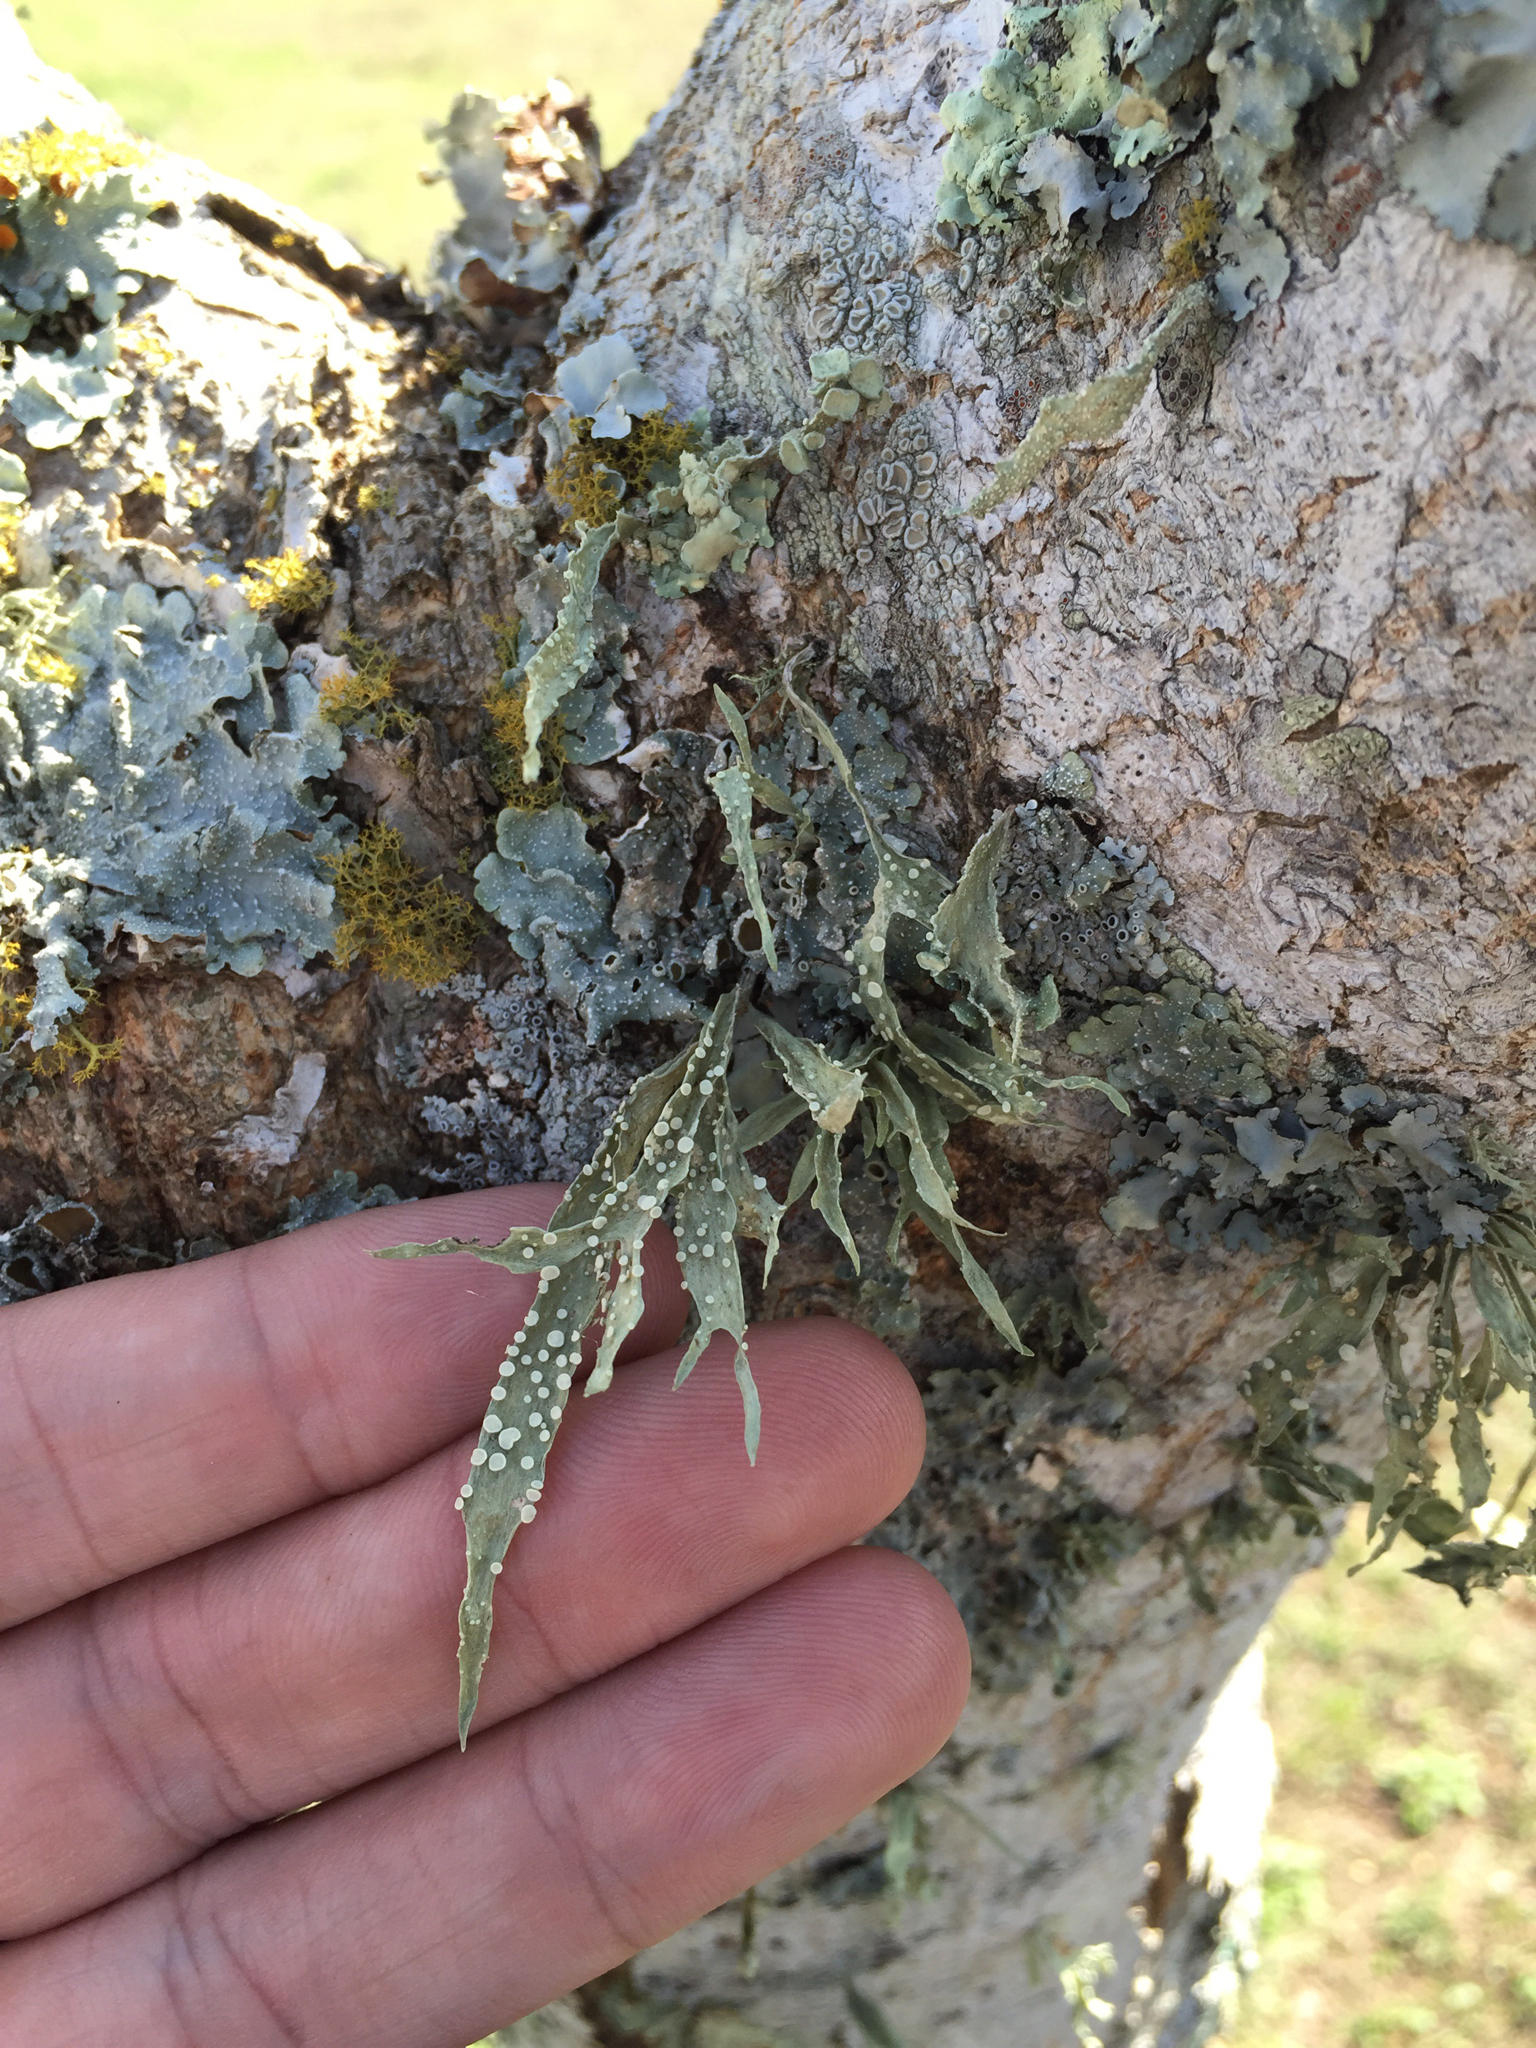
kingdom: Fungi
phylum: Ascomycota
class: Lecanoromycetes
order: Lecanorales
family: Ramalinaceae
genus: Ramalina
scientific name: Ramalina celastri
